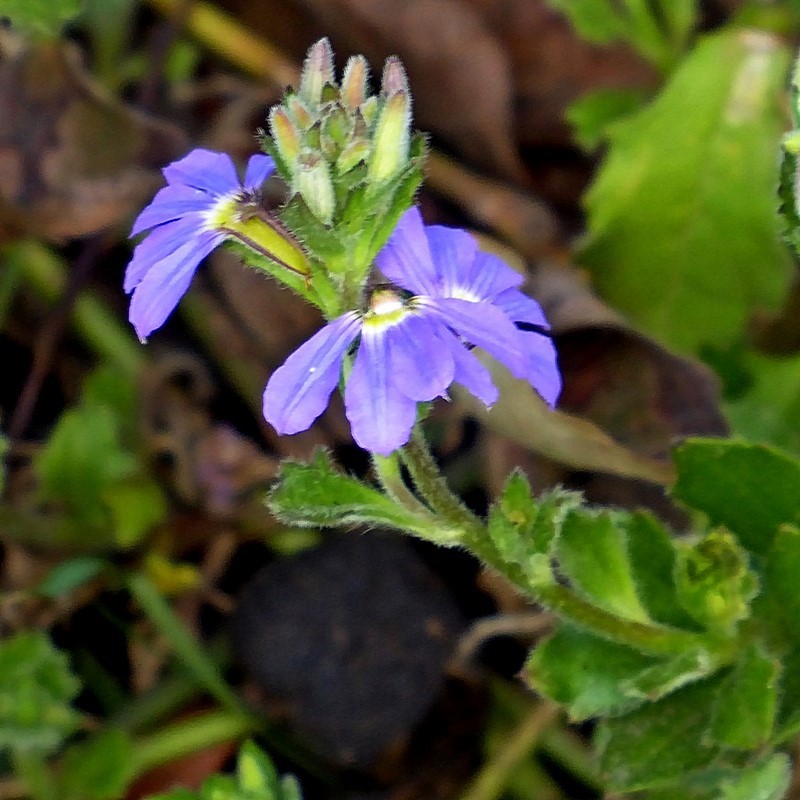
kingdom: Plantae
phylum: Tracheophyta
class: Magnoliopsida
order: Asterales
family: Goodeniaceae
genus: Scaevola
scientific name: Scaevola aemula
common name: Common fanflower
